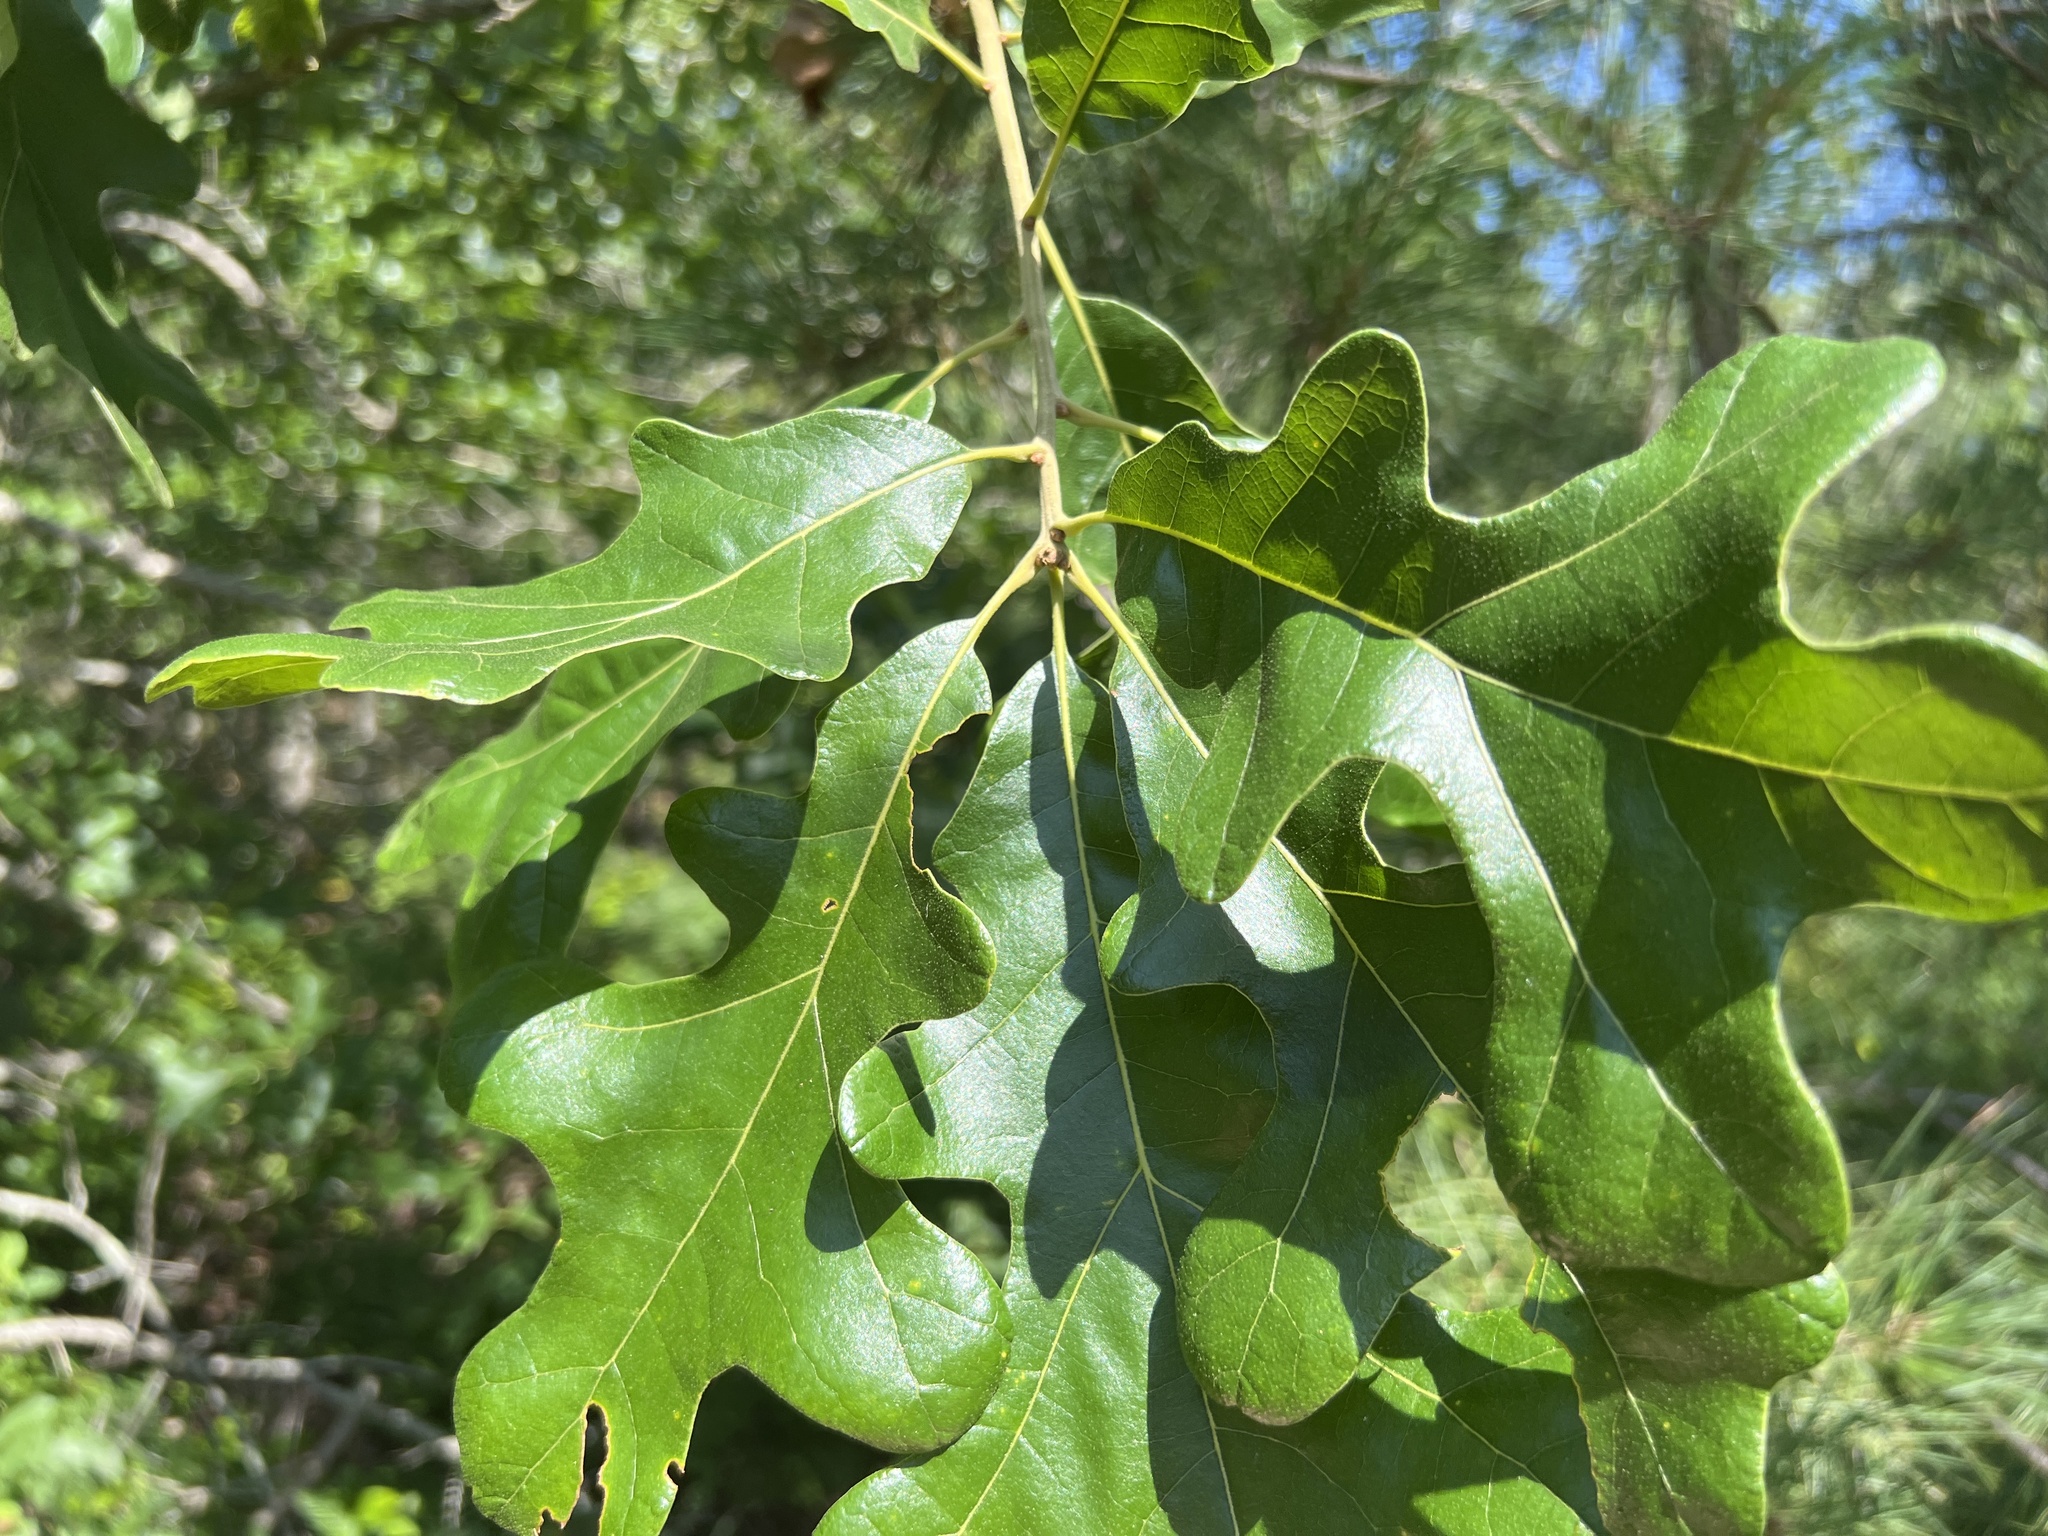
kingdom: Plantae
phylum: Tracheophyta
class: Magnoliopsida
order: Fagales
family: Fagaceae
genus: Quercus
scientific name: Quercus stellata
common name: Post oak
